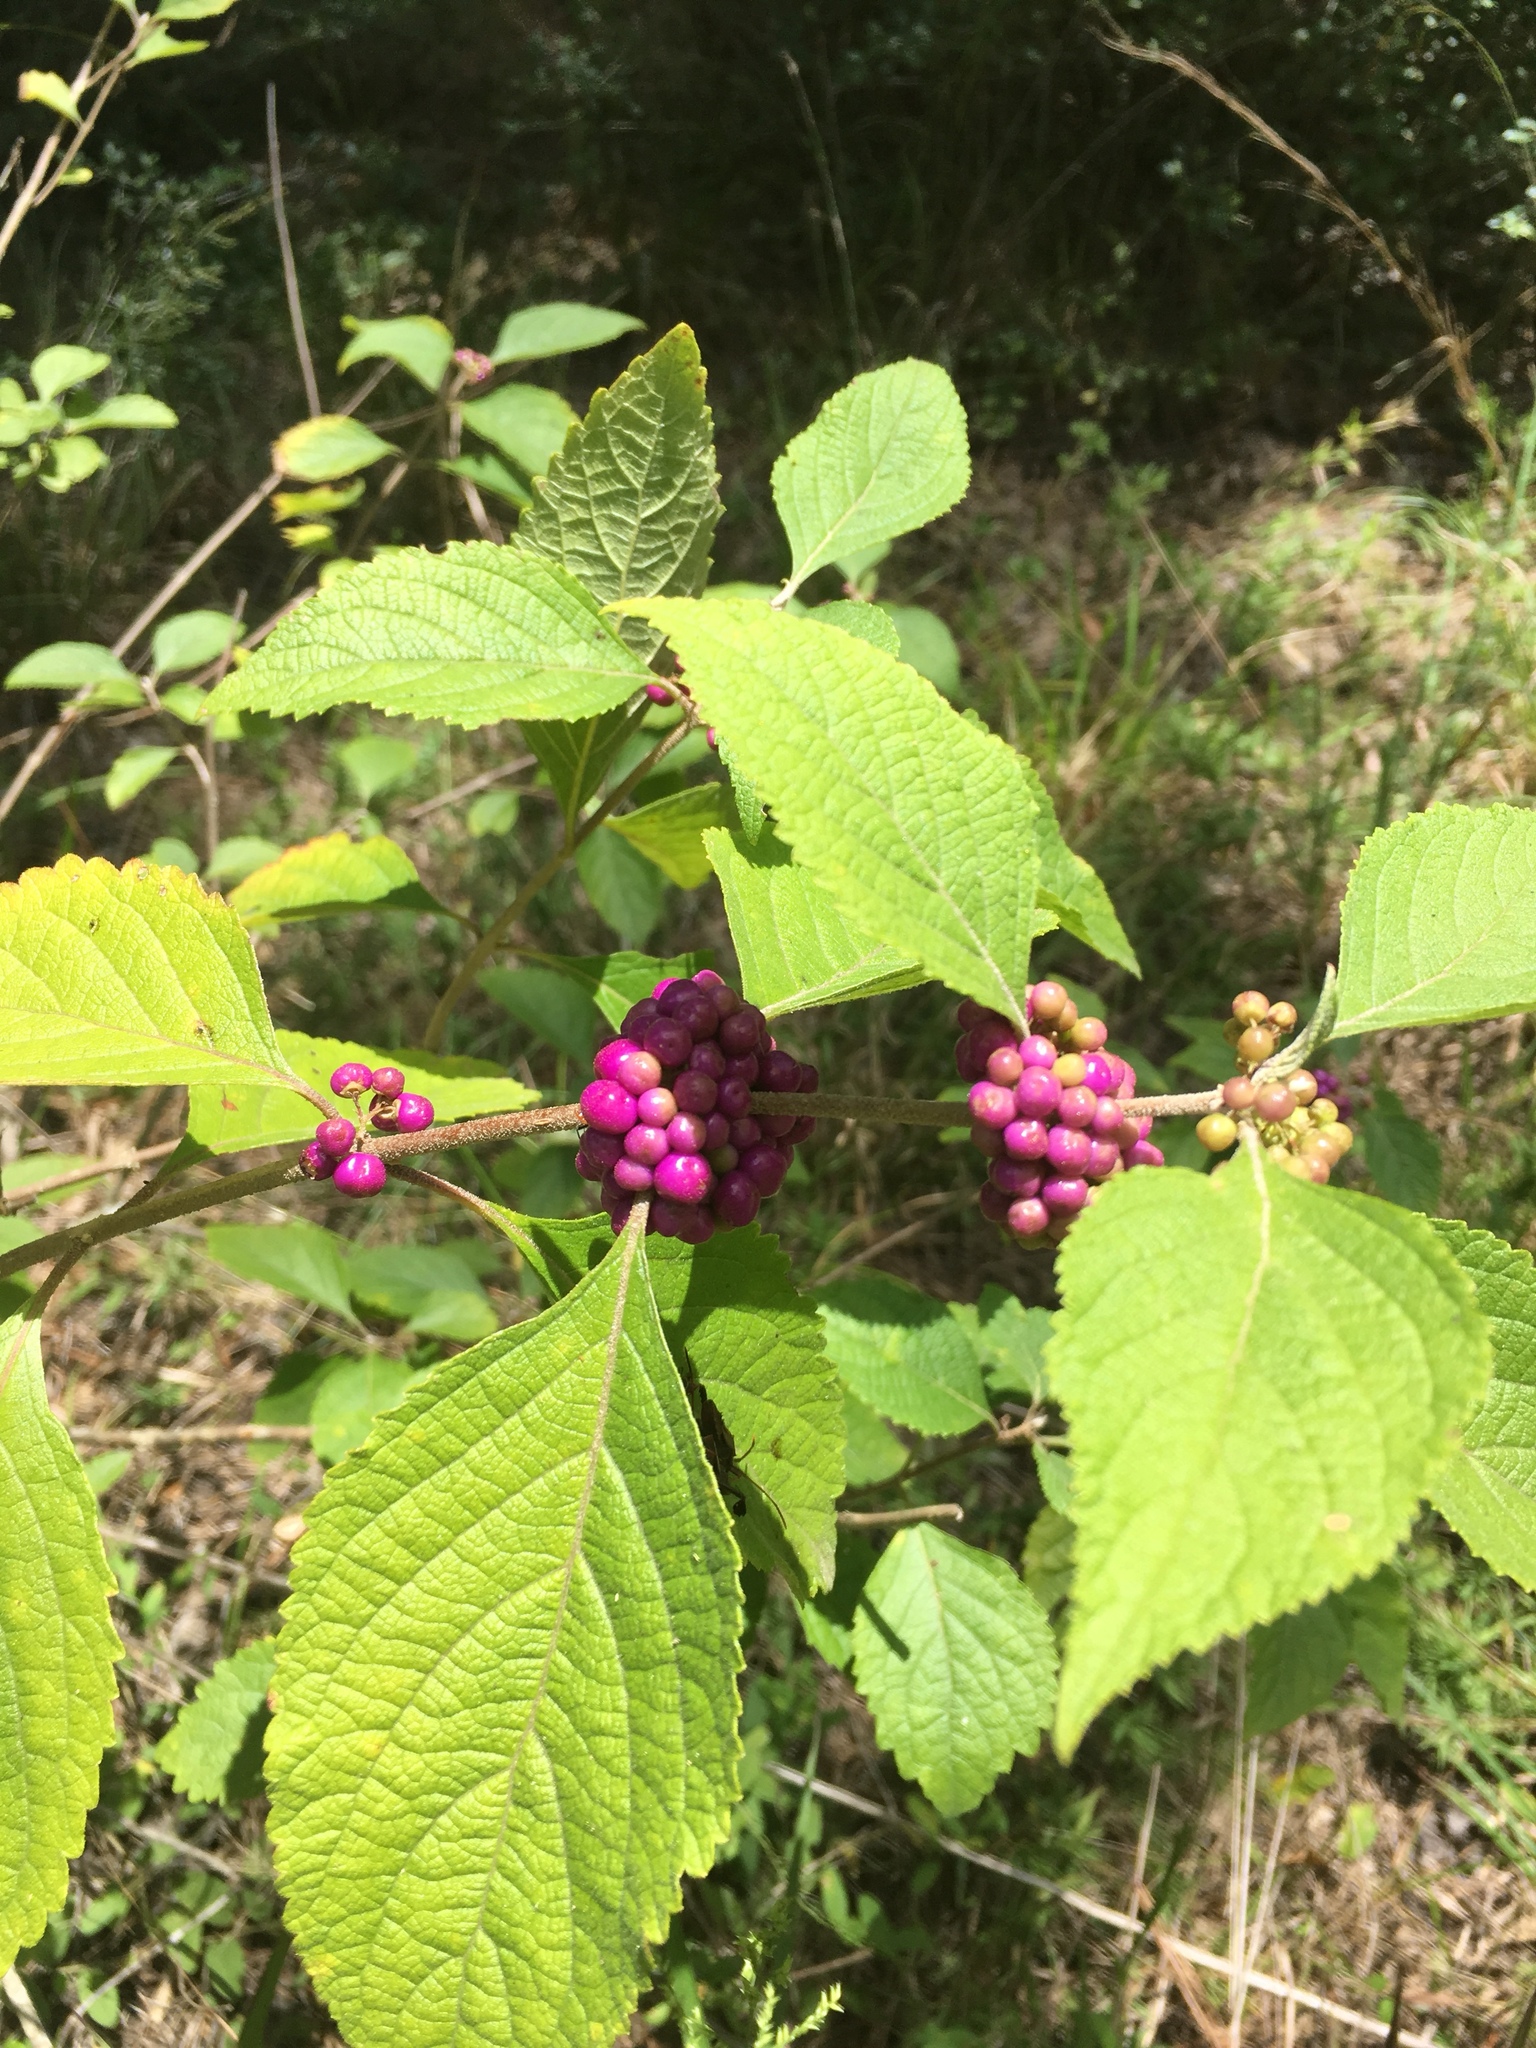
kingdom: Plantae
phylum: Tracheophyta
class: Magnoliopsida
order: Lamiales
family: Lamiaceae
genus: Callicarpa
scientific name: Callicarpa americana
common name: American beautyberry
